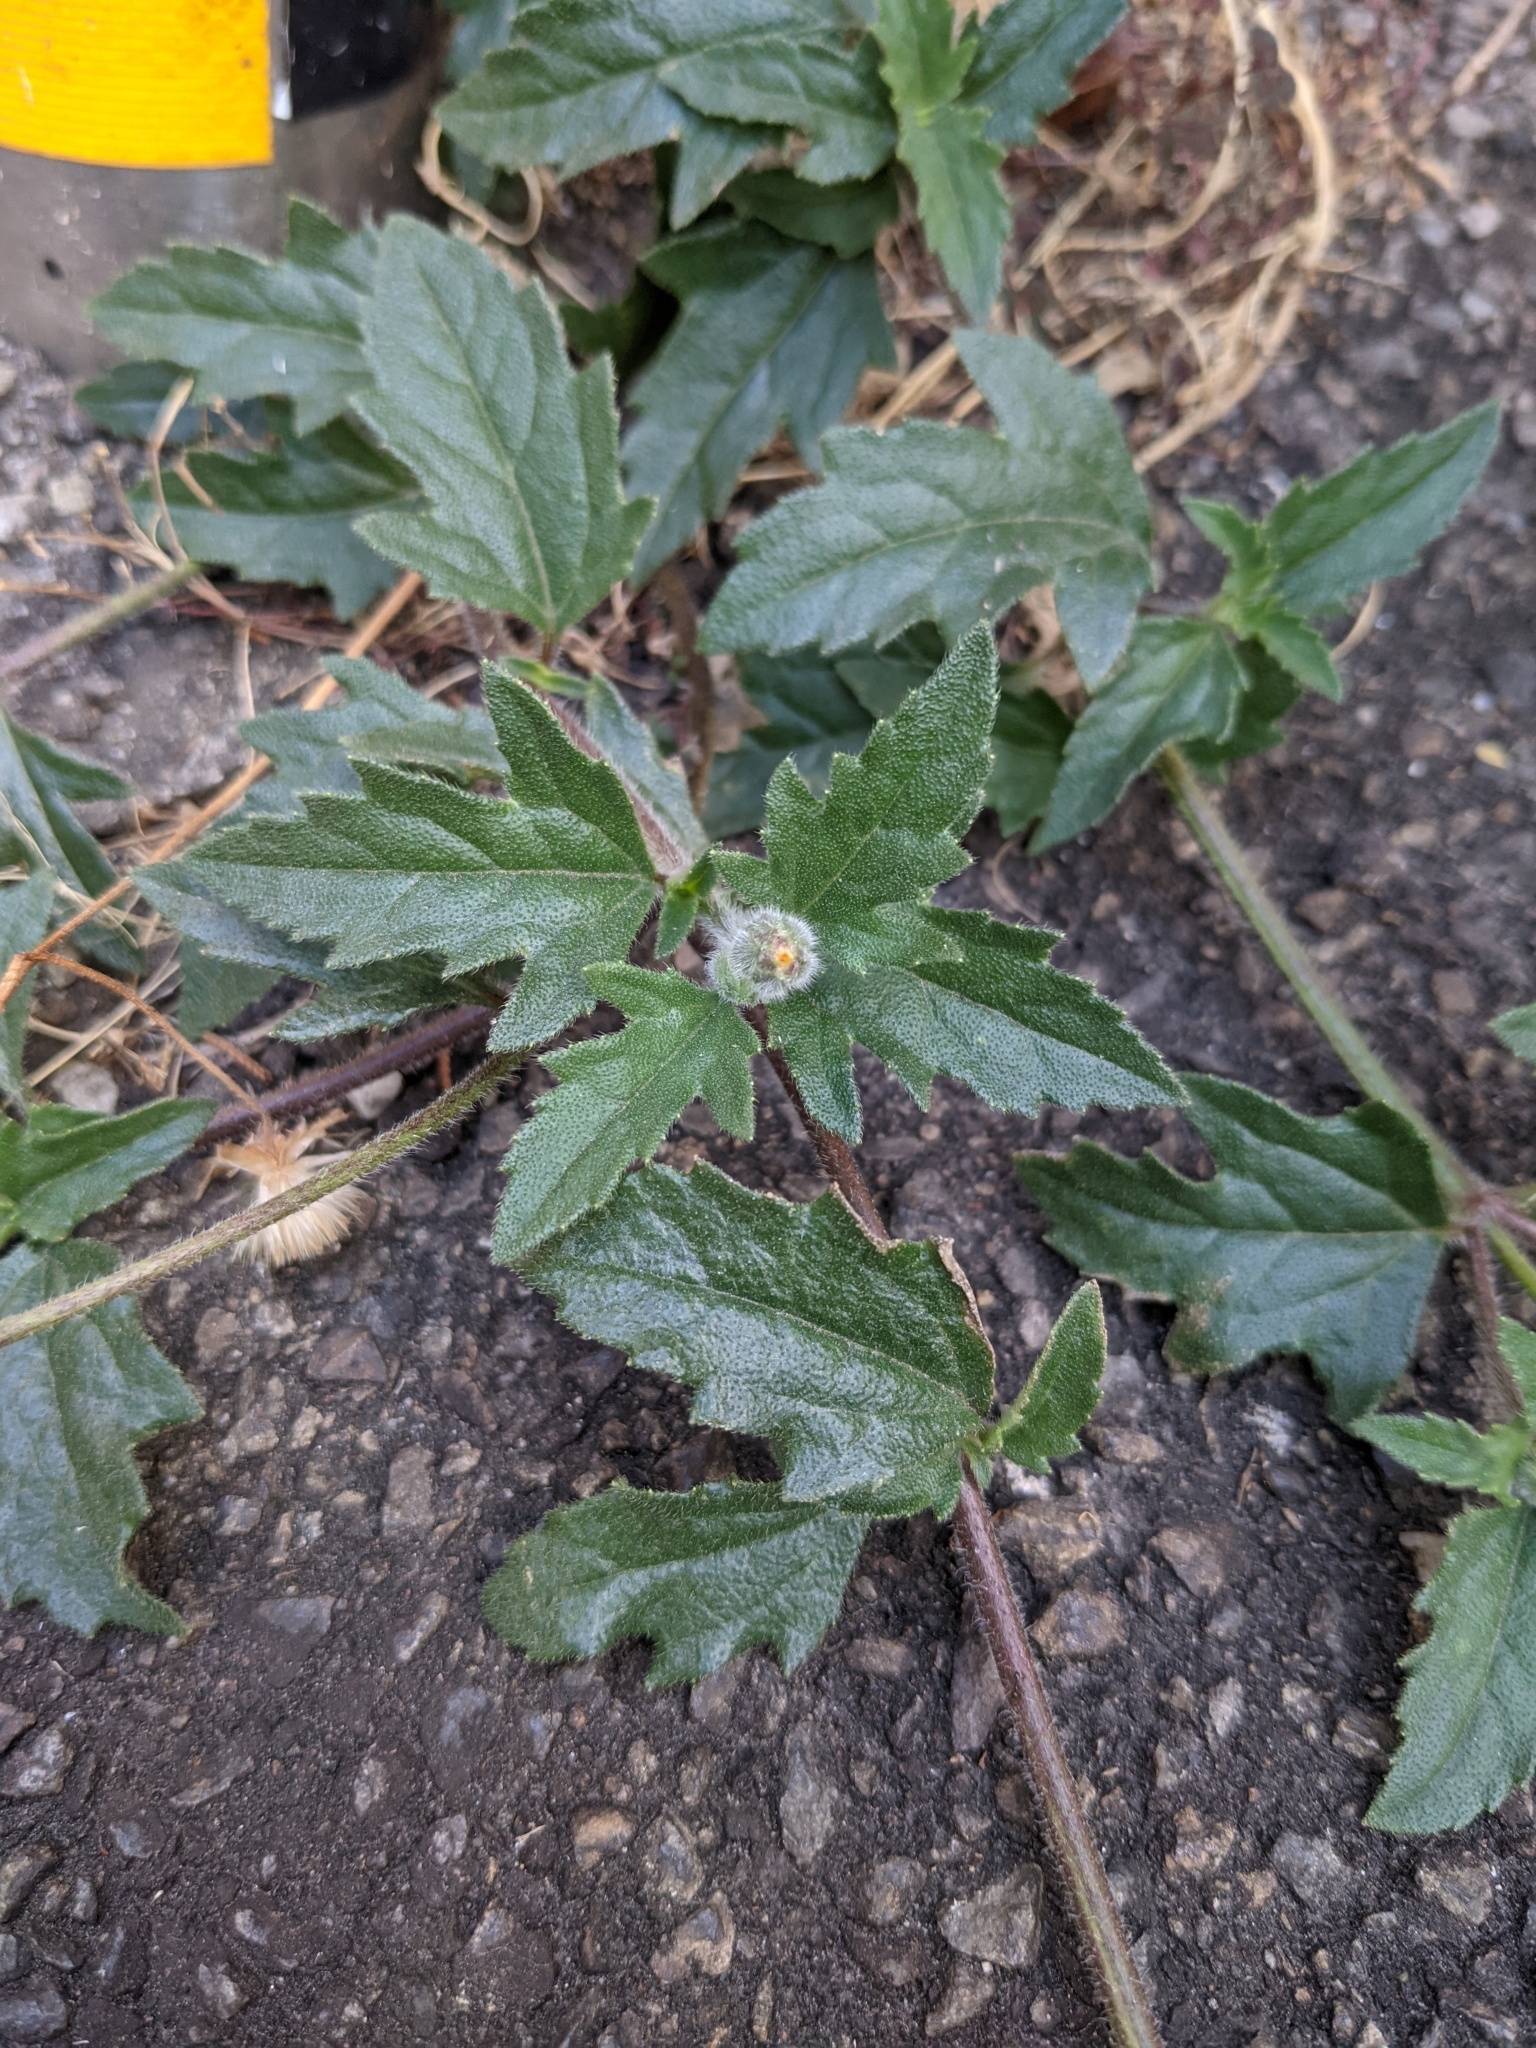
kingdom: Plantae
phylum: Tracheophyta
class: Magnoliopsida
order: Asterales
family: Asteraceae
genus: Tridax
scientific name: Tridax procumbens
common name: Coatbuttons
